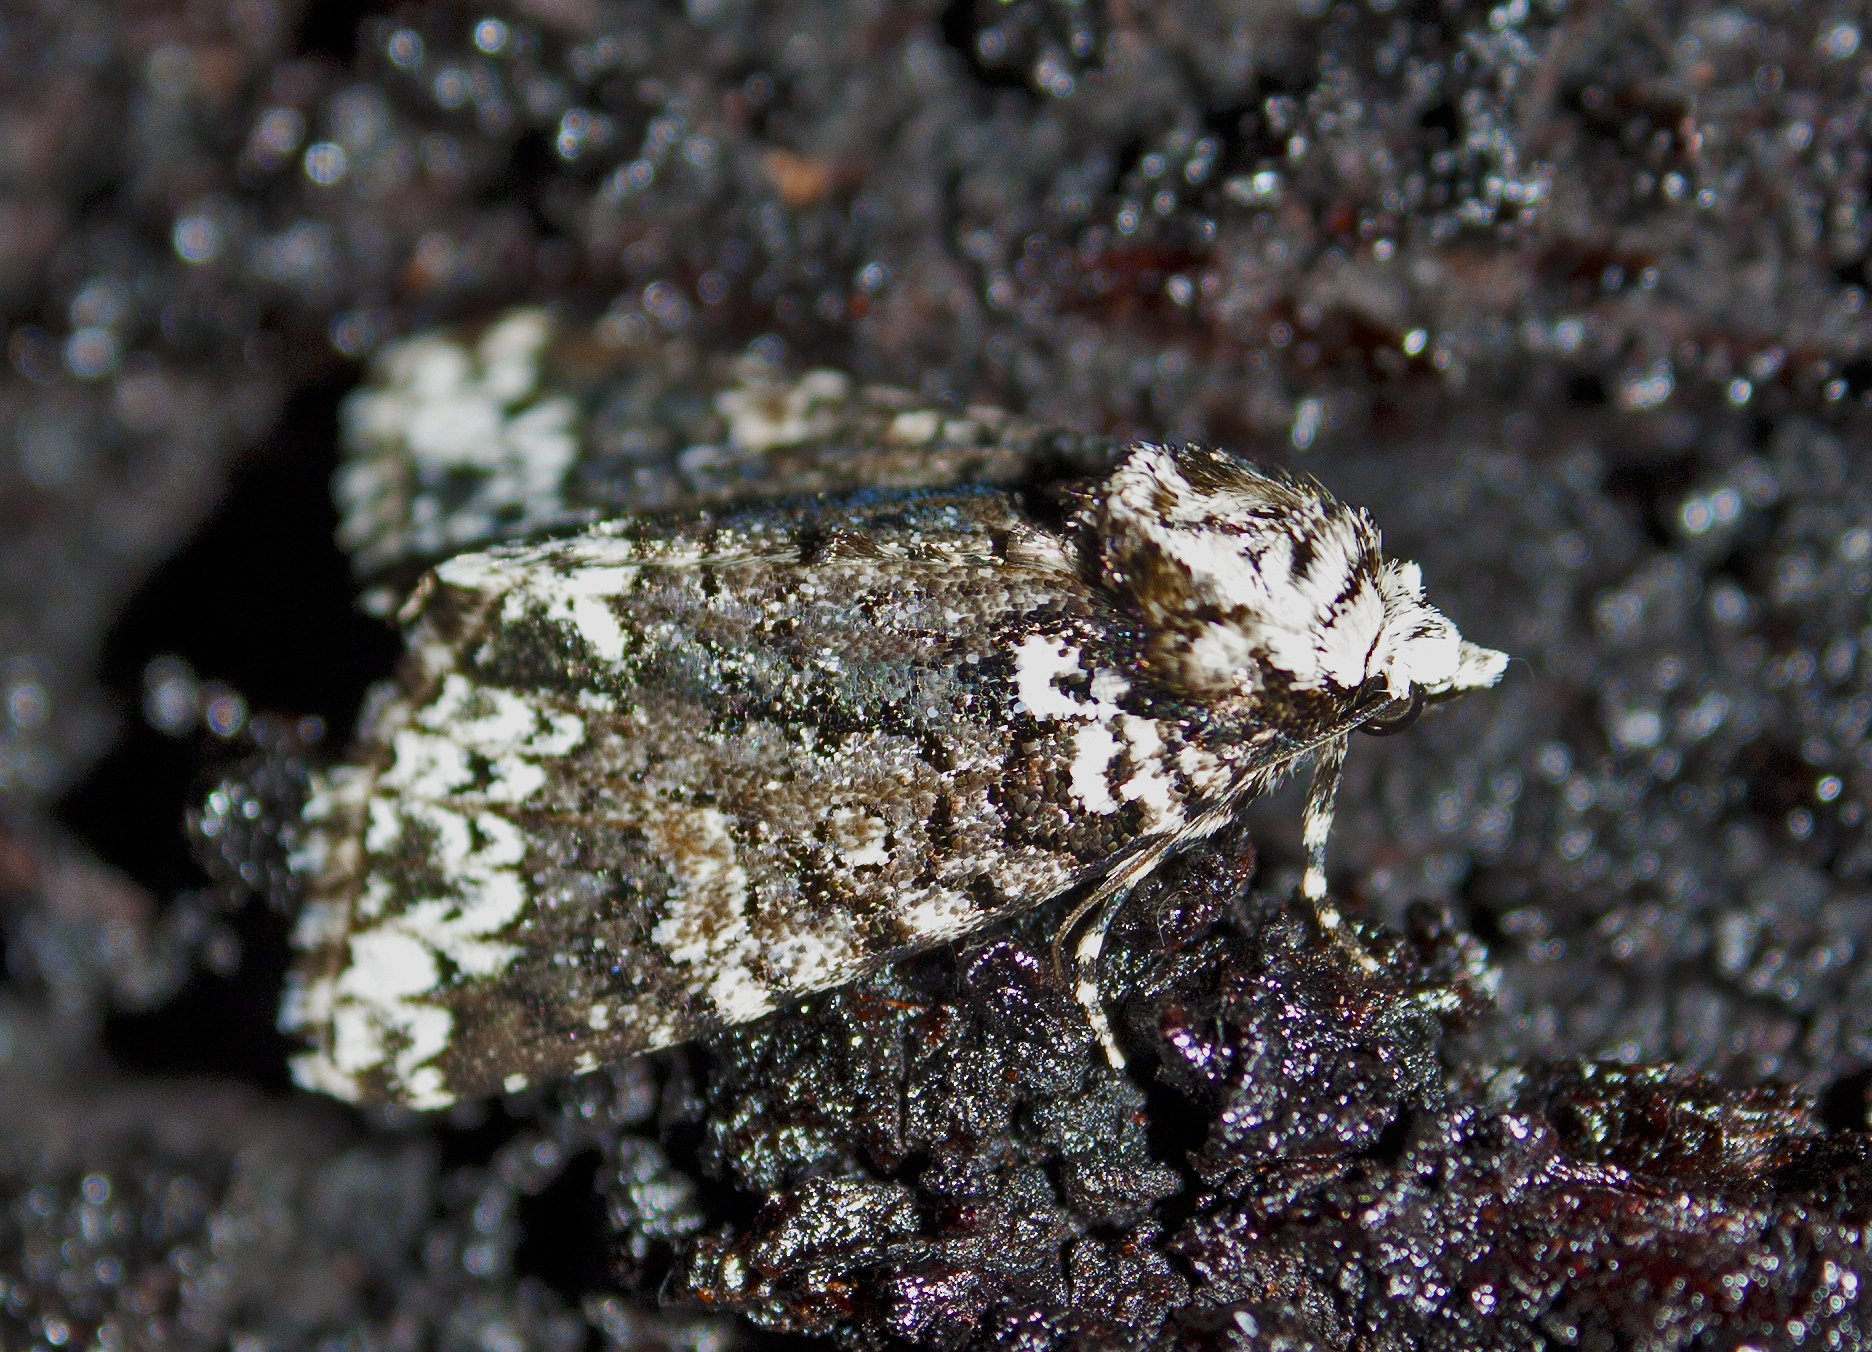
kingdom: Animalia
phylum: Arthropoda
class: Insecta
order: Lepidoptera
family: Noctuidae
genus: Thalatha
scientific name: Thalatha chionobola
